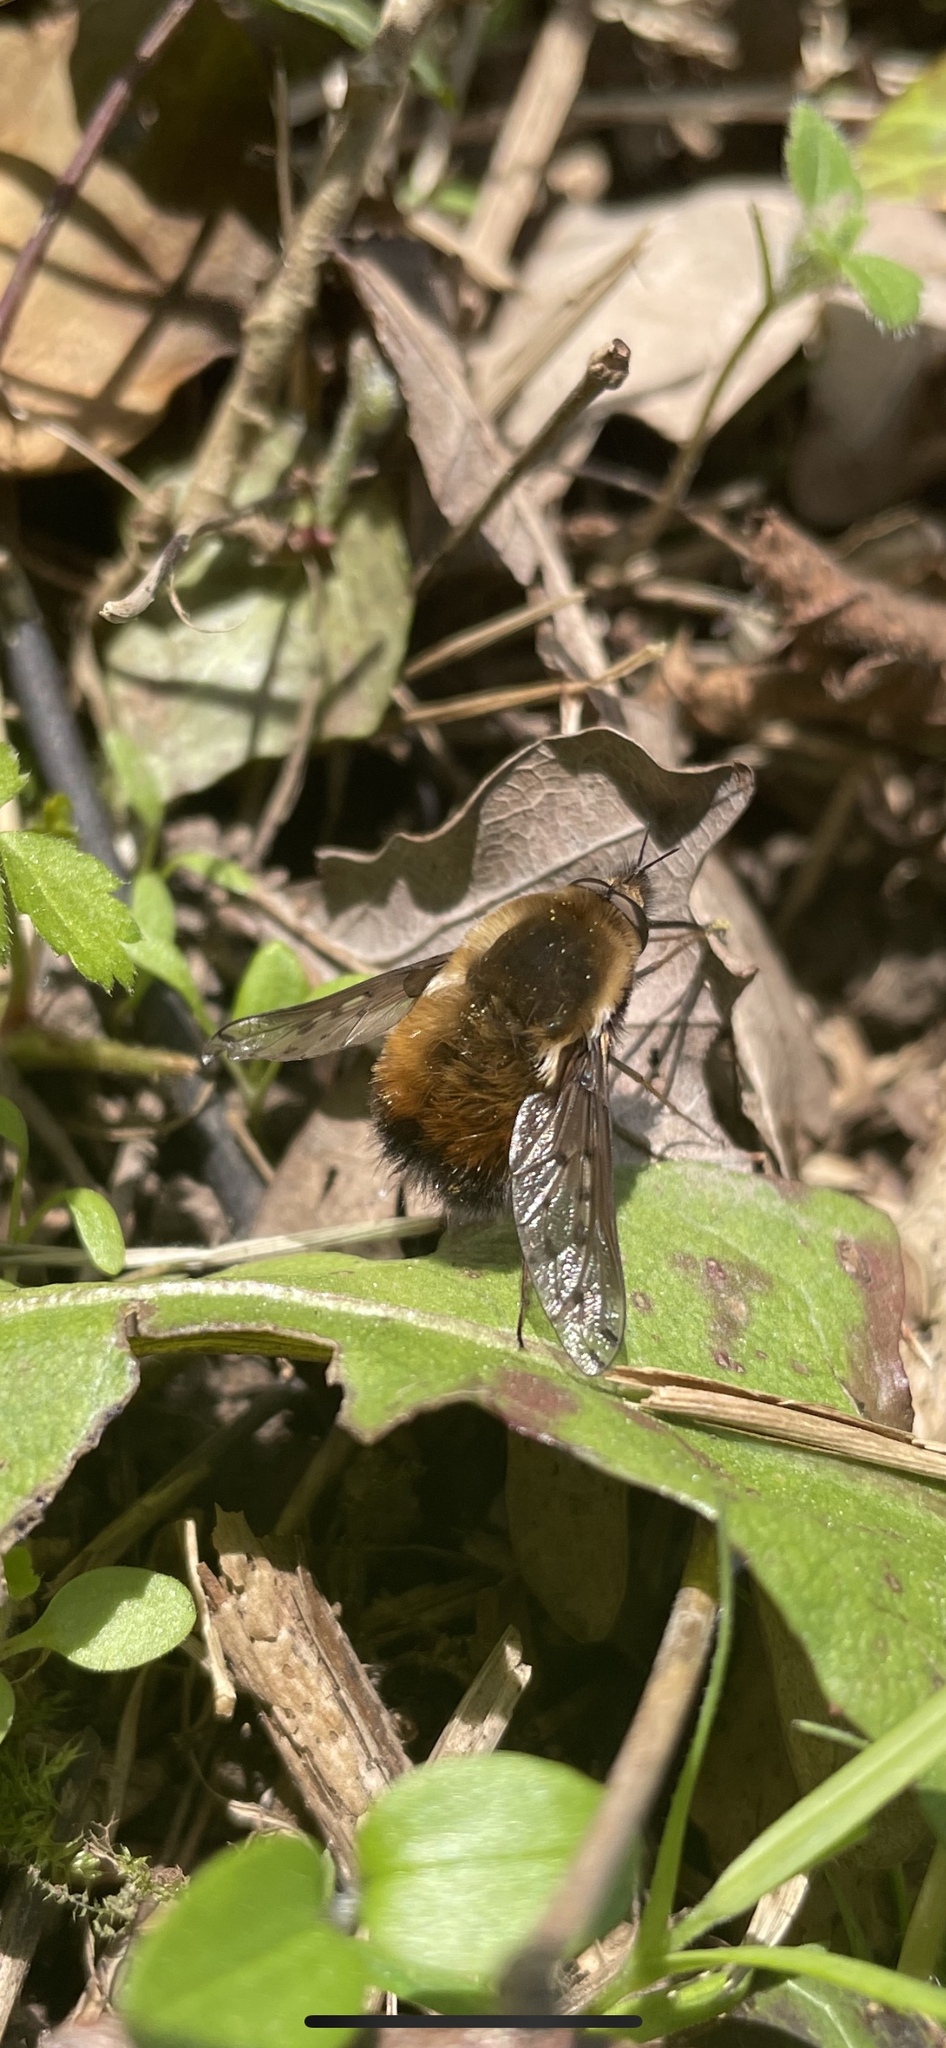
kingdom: Animalia
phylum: Arthropoda
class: Insecta
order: Diptera
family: Bombyliidae
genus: Bombylius
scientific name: Bombylius discolor
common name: Dotted bee-fly
